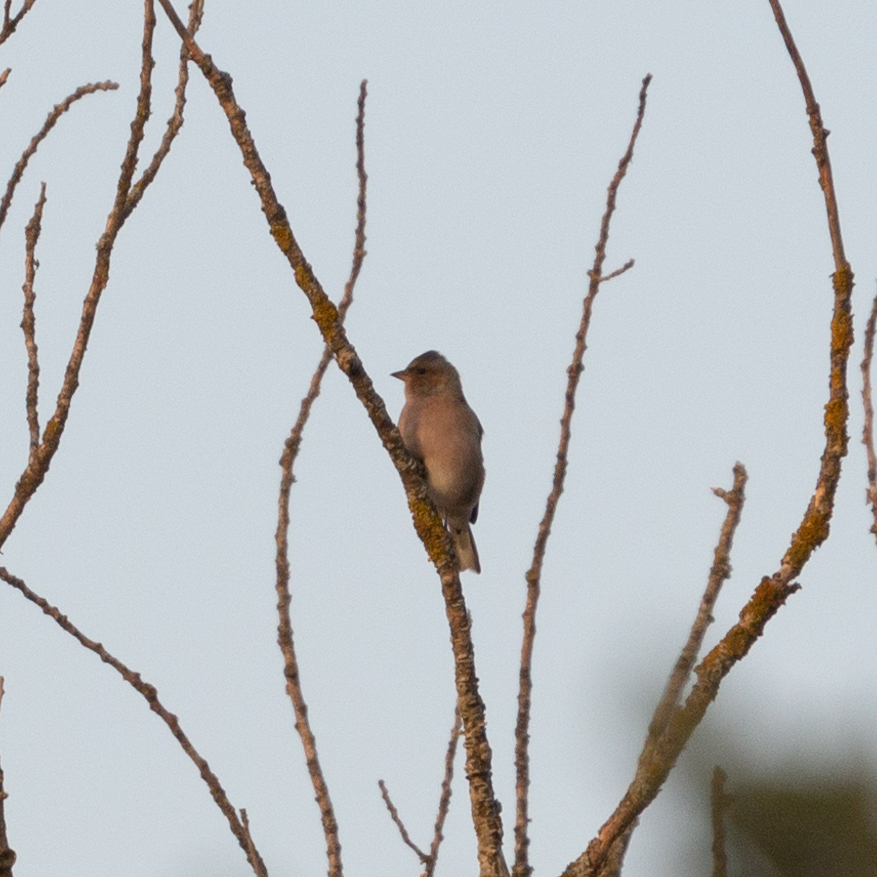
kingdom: Animalia
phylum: Chordata
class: Aves
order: Passeriformes
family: Fringillidae
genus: Fringilla
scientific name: Fringilla coelebs
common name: Common chaffinch
